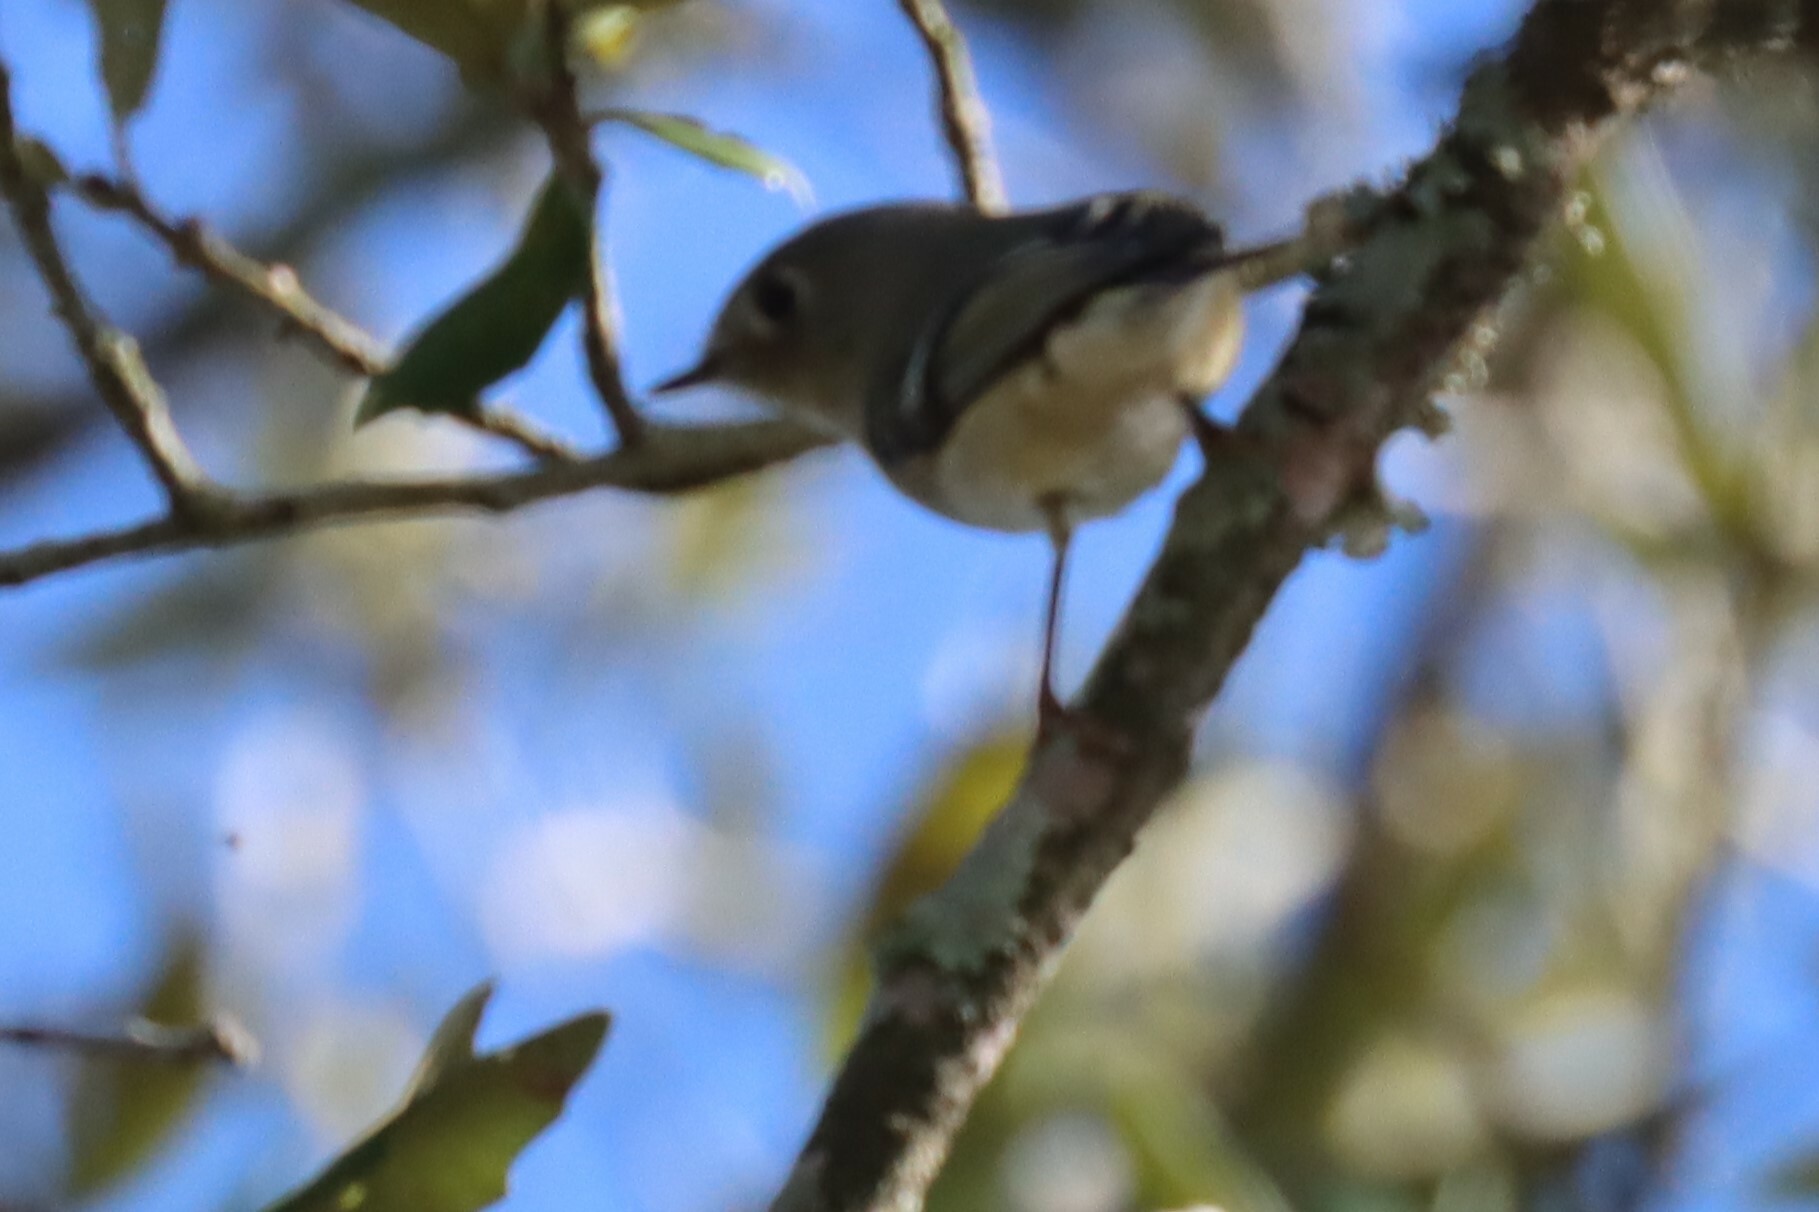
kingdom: Animalia
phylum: Chordata
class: Aves
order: Passeriformes
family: Regulidae
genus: Regulus
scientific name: Regulus calendula
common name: Ruby-crowned kinglet
